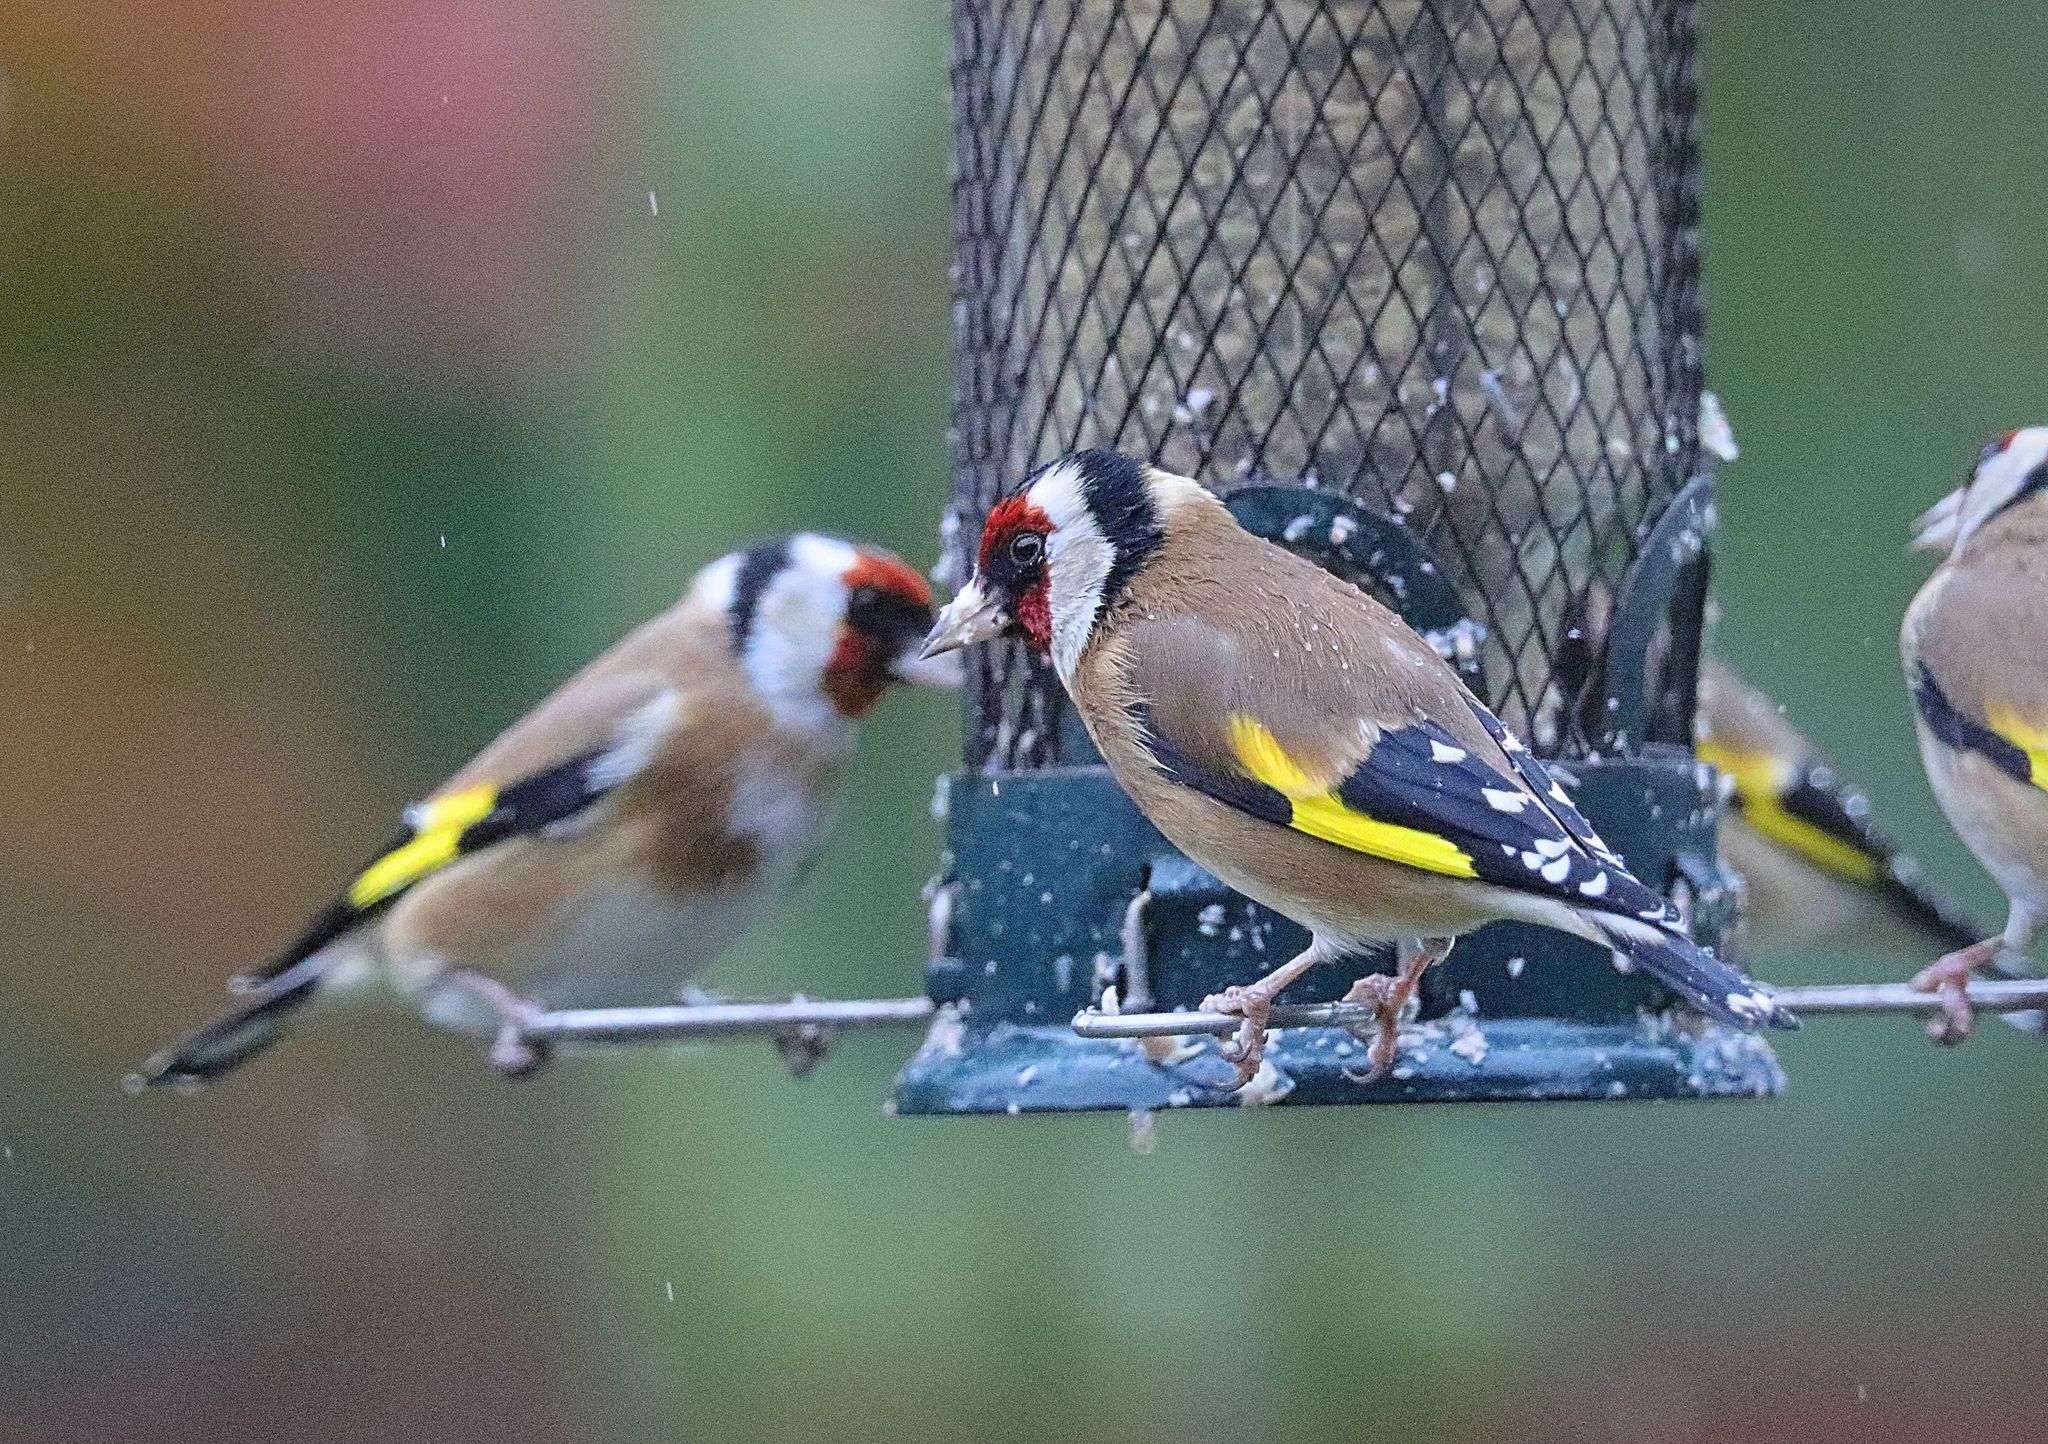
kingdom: Animalia
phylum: Chordata
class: Aves
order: Passeriformes
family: Fringillidae
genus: Carduelis
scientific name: Carduelis carduelis
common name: European goldfinch
